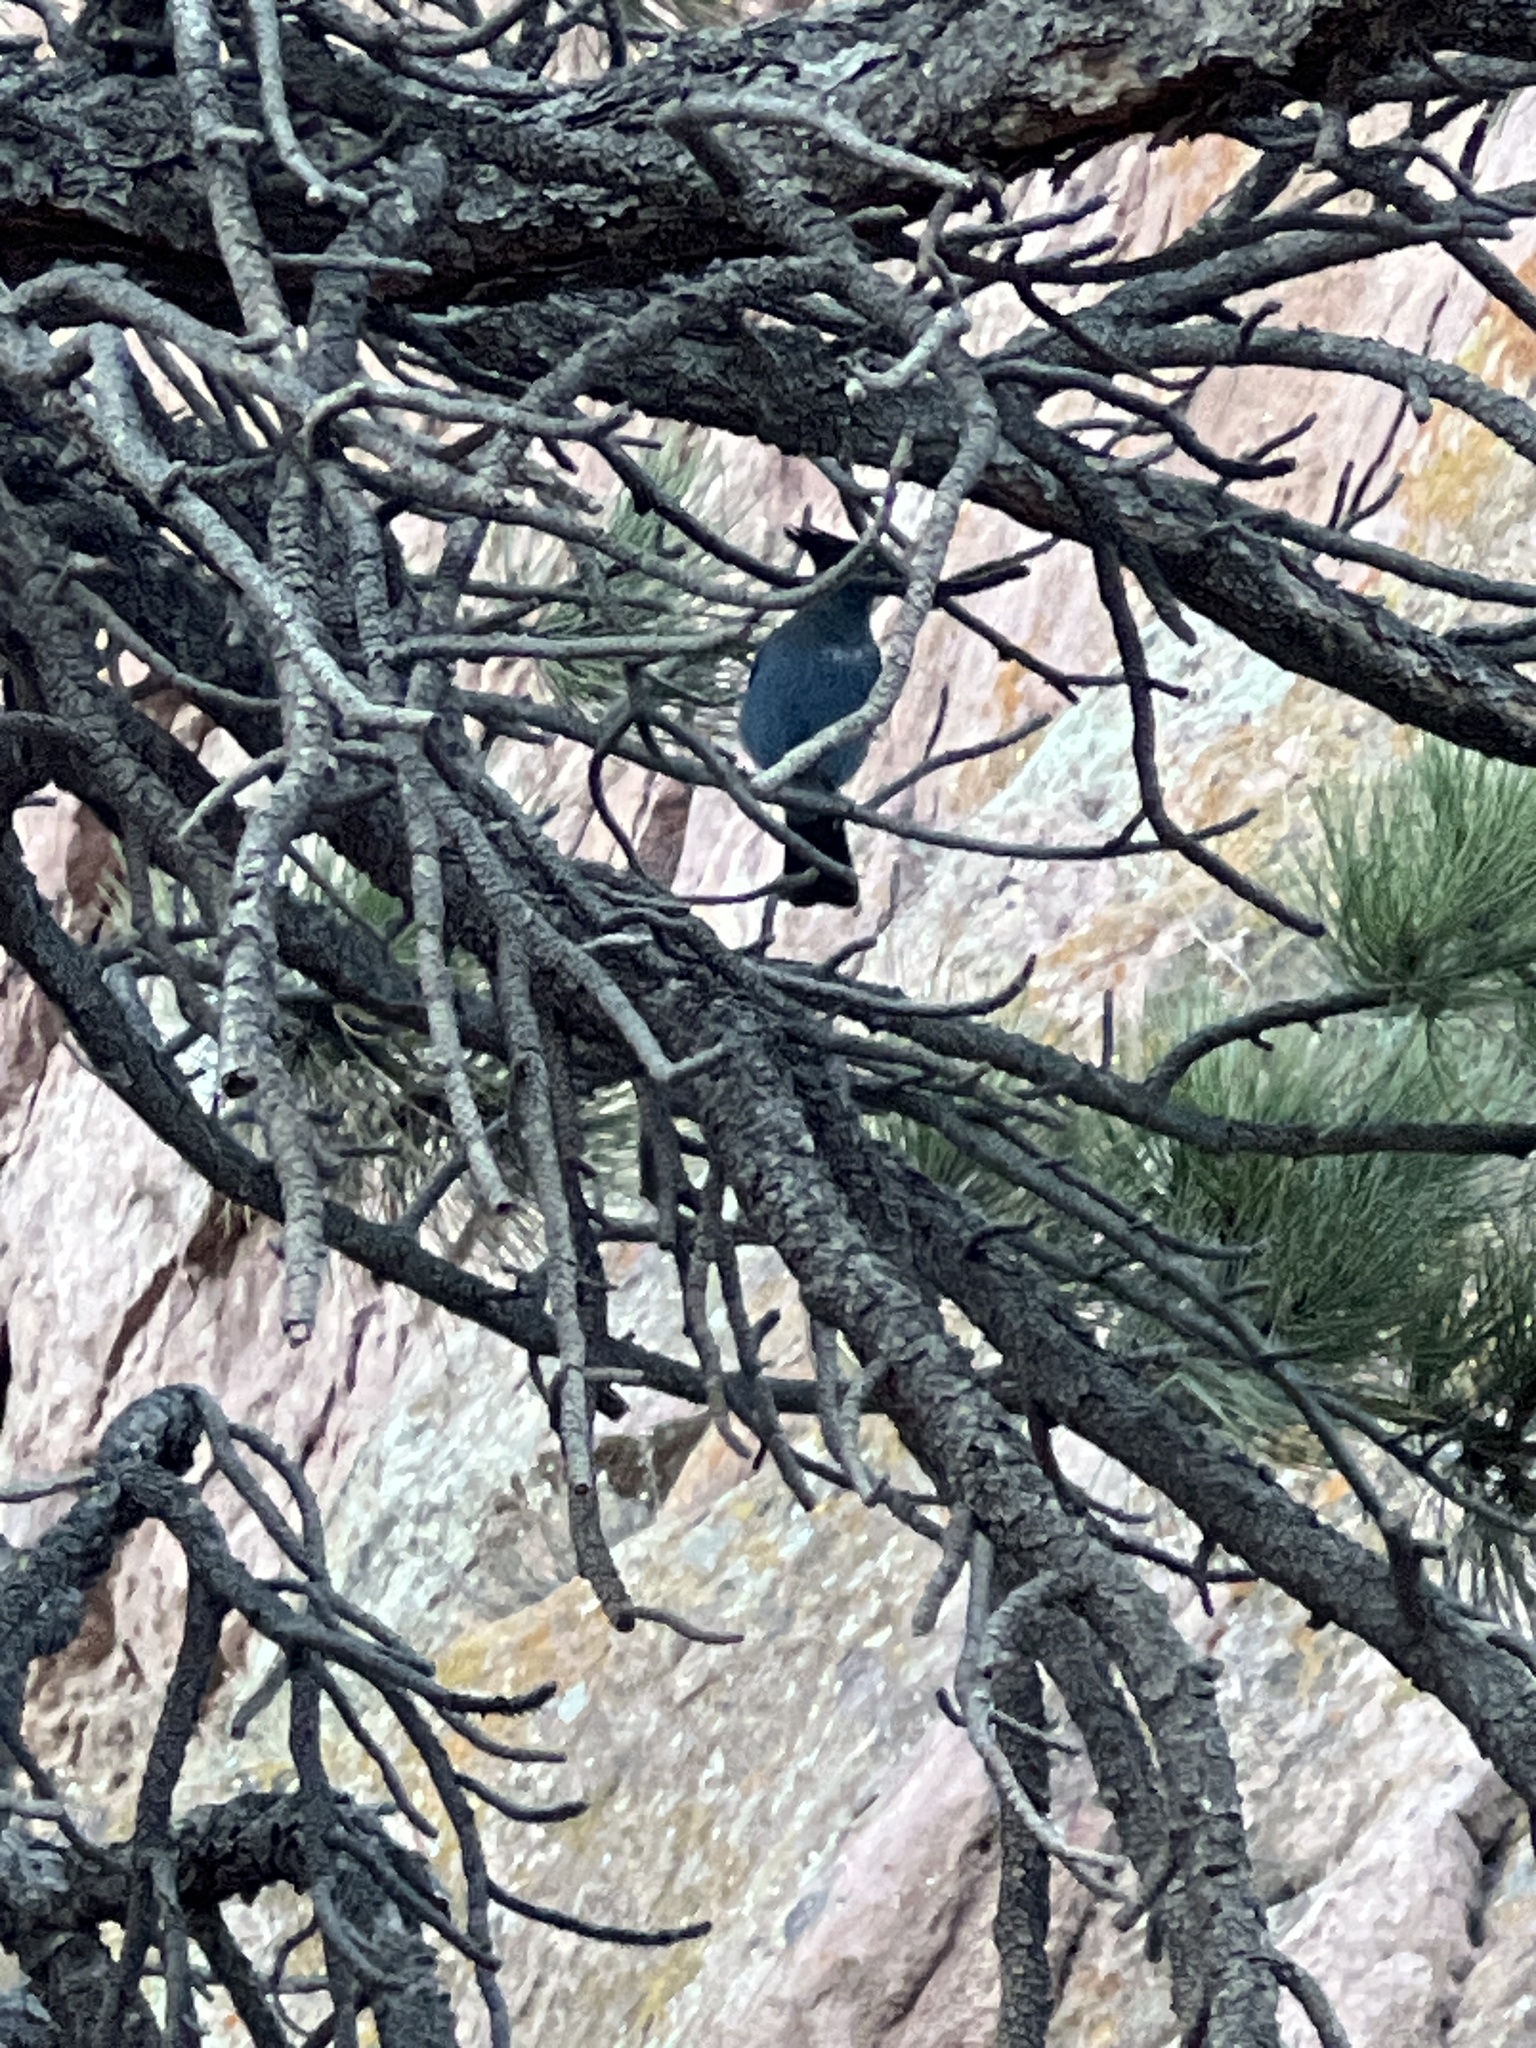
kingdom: Animalia
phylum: Chordata
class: Aves
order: Passeriformes
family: Corvidae
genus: Cyanocitta
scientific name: Cyanocitta stelleri
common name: Steller's jay
